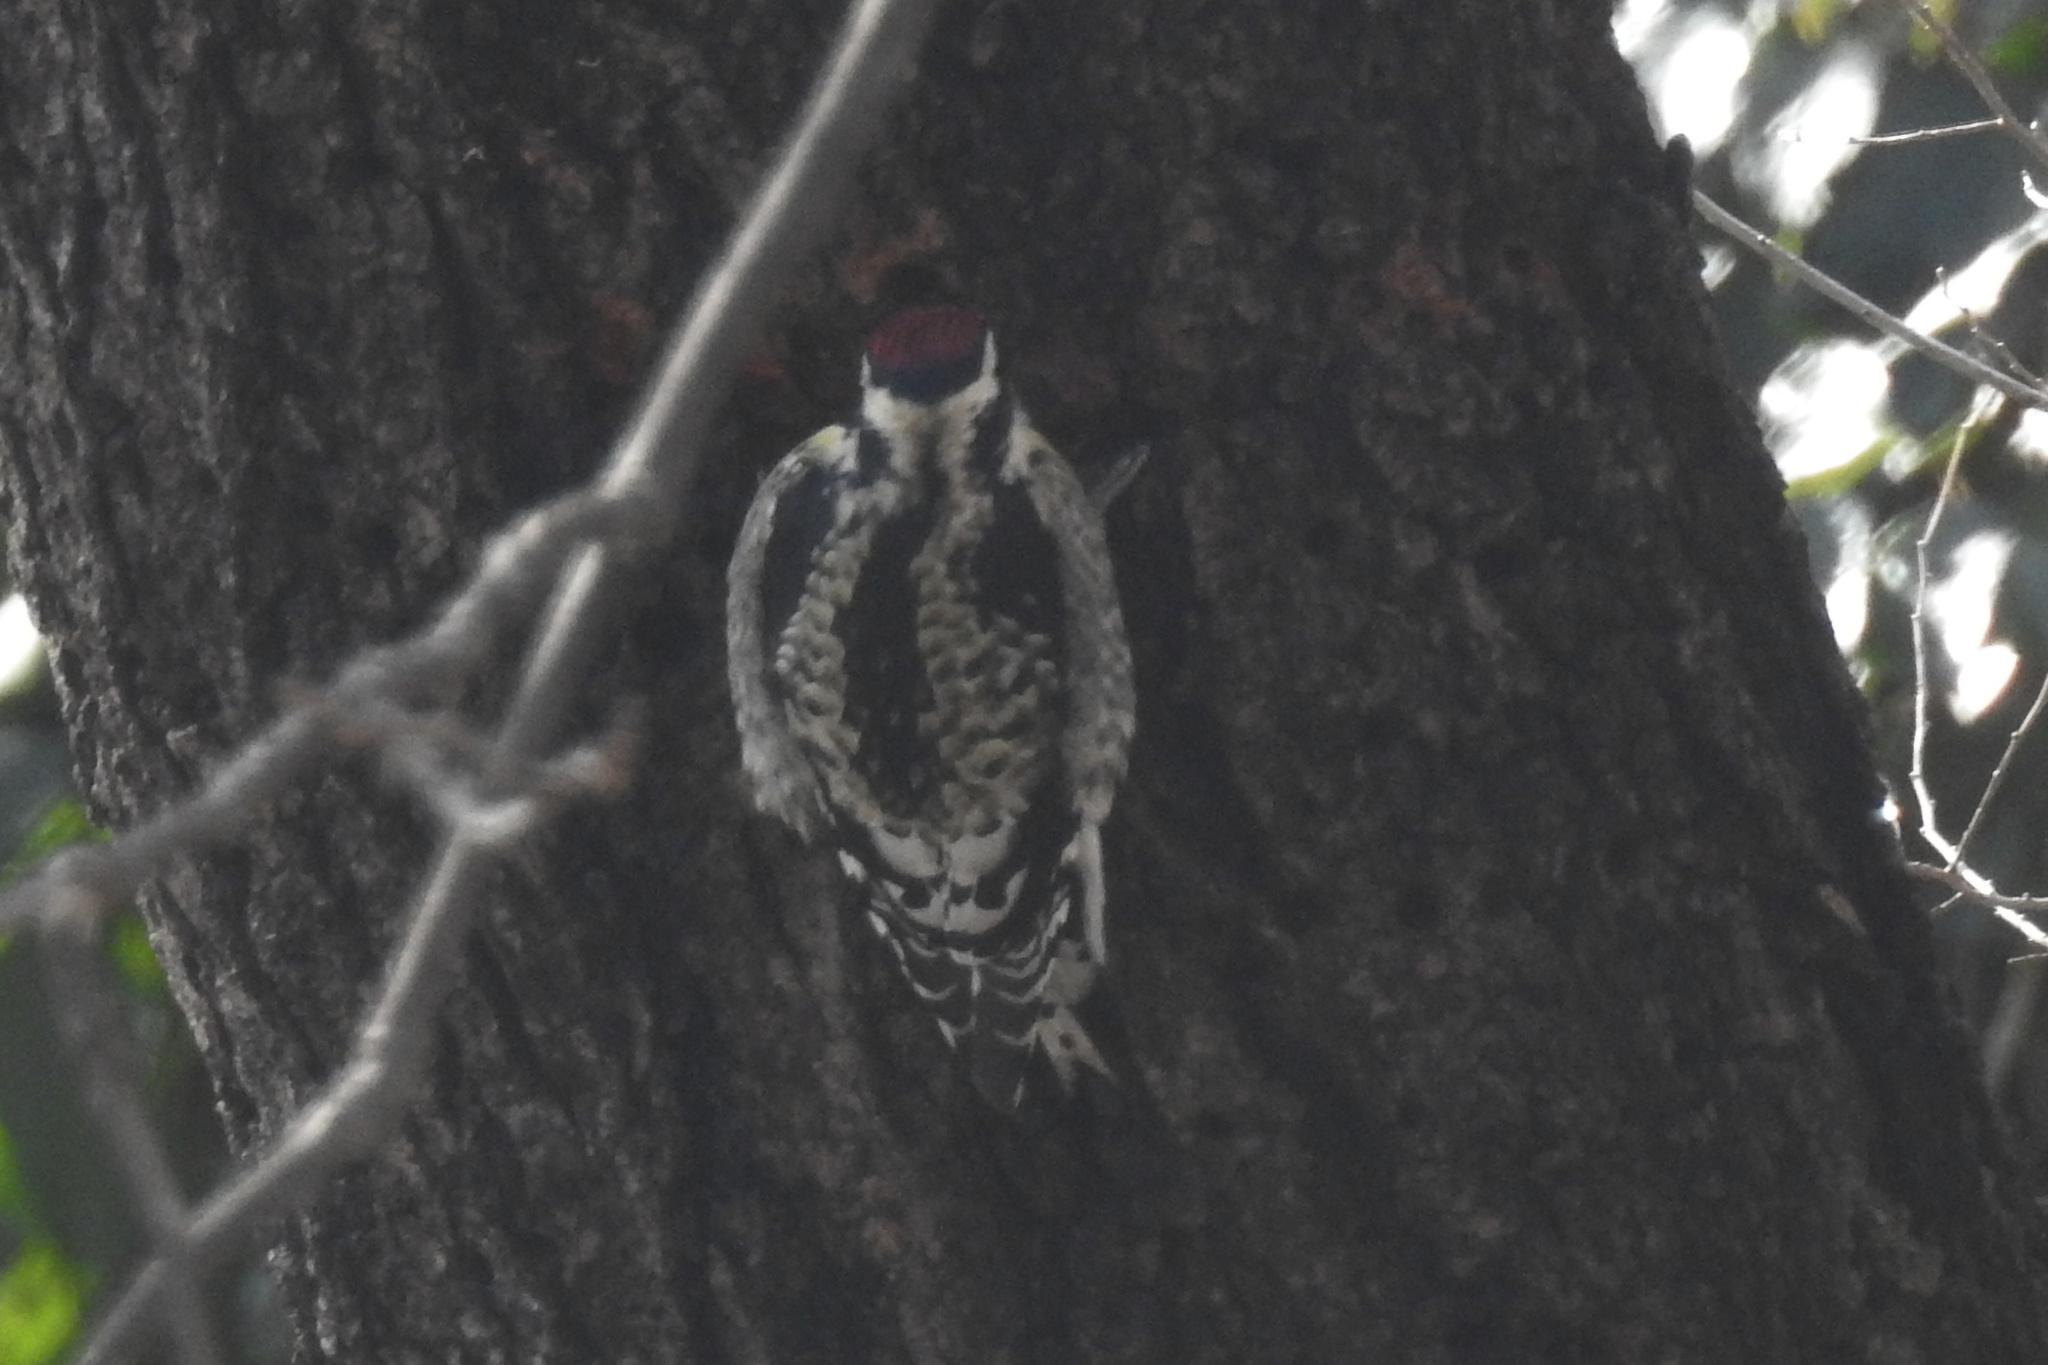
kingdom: Animalia
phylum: Chordata
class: Aves
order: Piciformes
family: Picidae
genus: Sphyrapicus
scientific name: Sphyrapicus varius
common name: Yellow-bellied sapsucker
